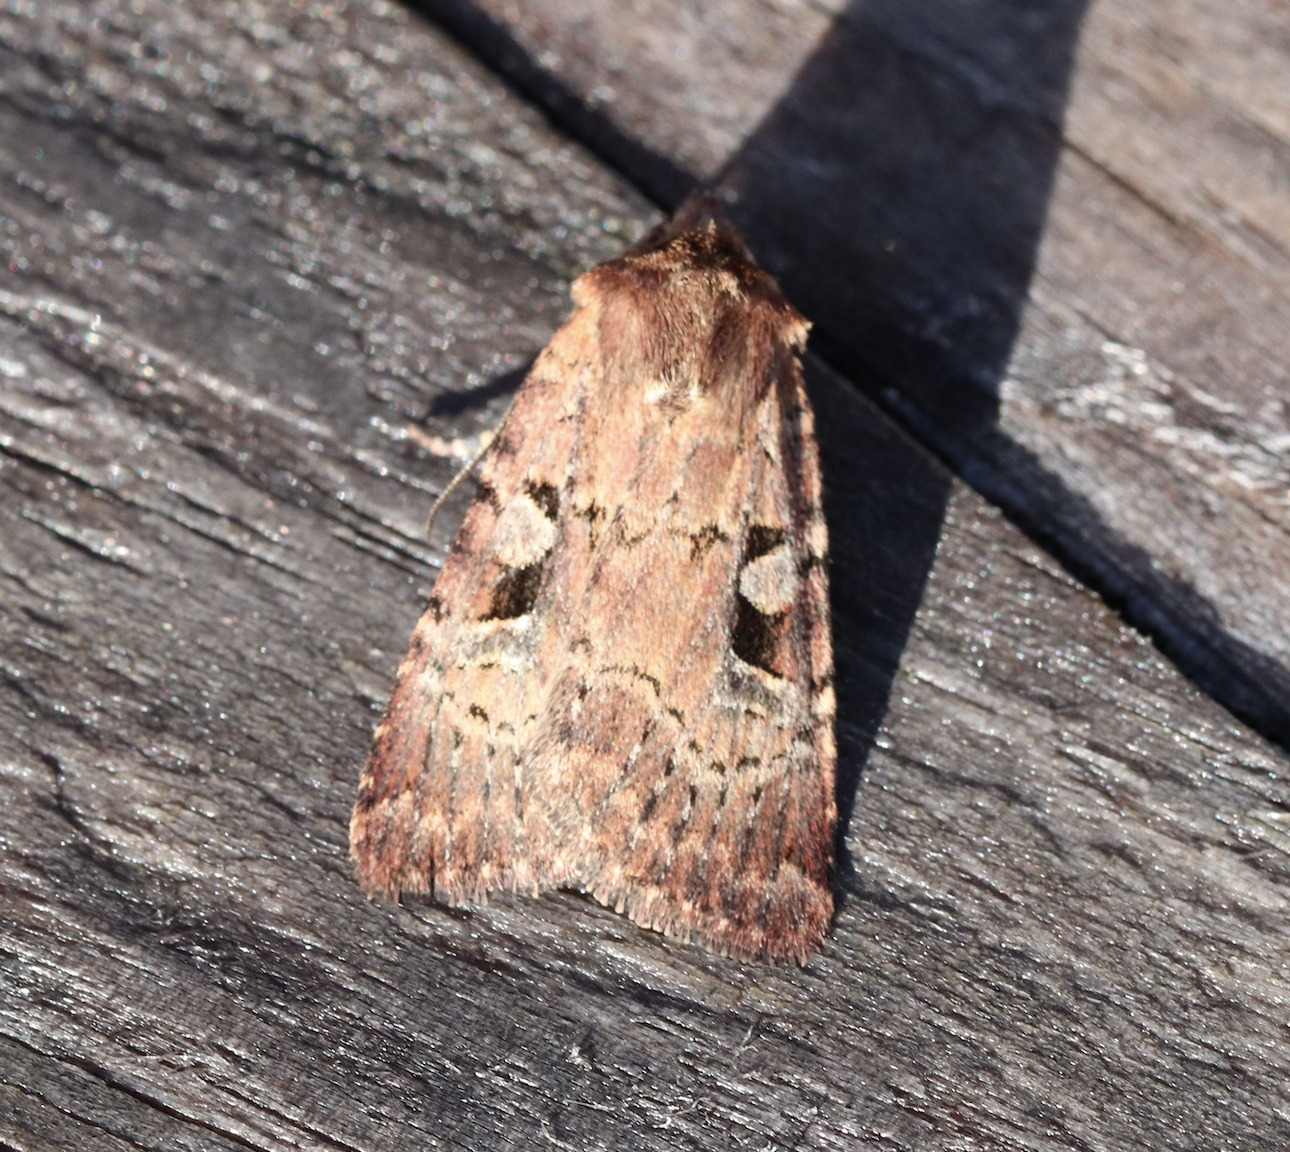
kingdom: Animalia
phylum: Arthropoda
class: Insecta
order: Lepidoptera
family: Noctuidae
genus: Diarsia
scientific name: Diarsia mendica
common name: Ingrailed clay
